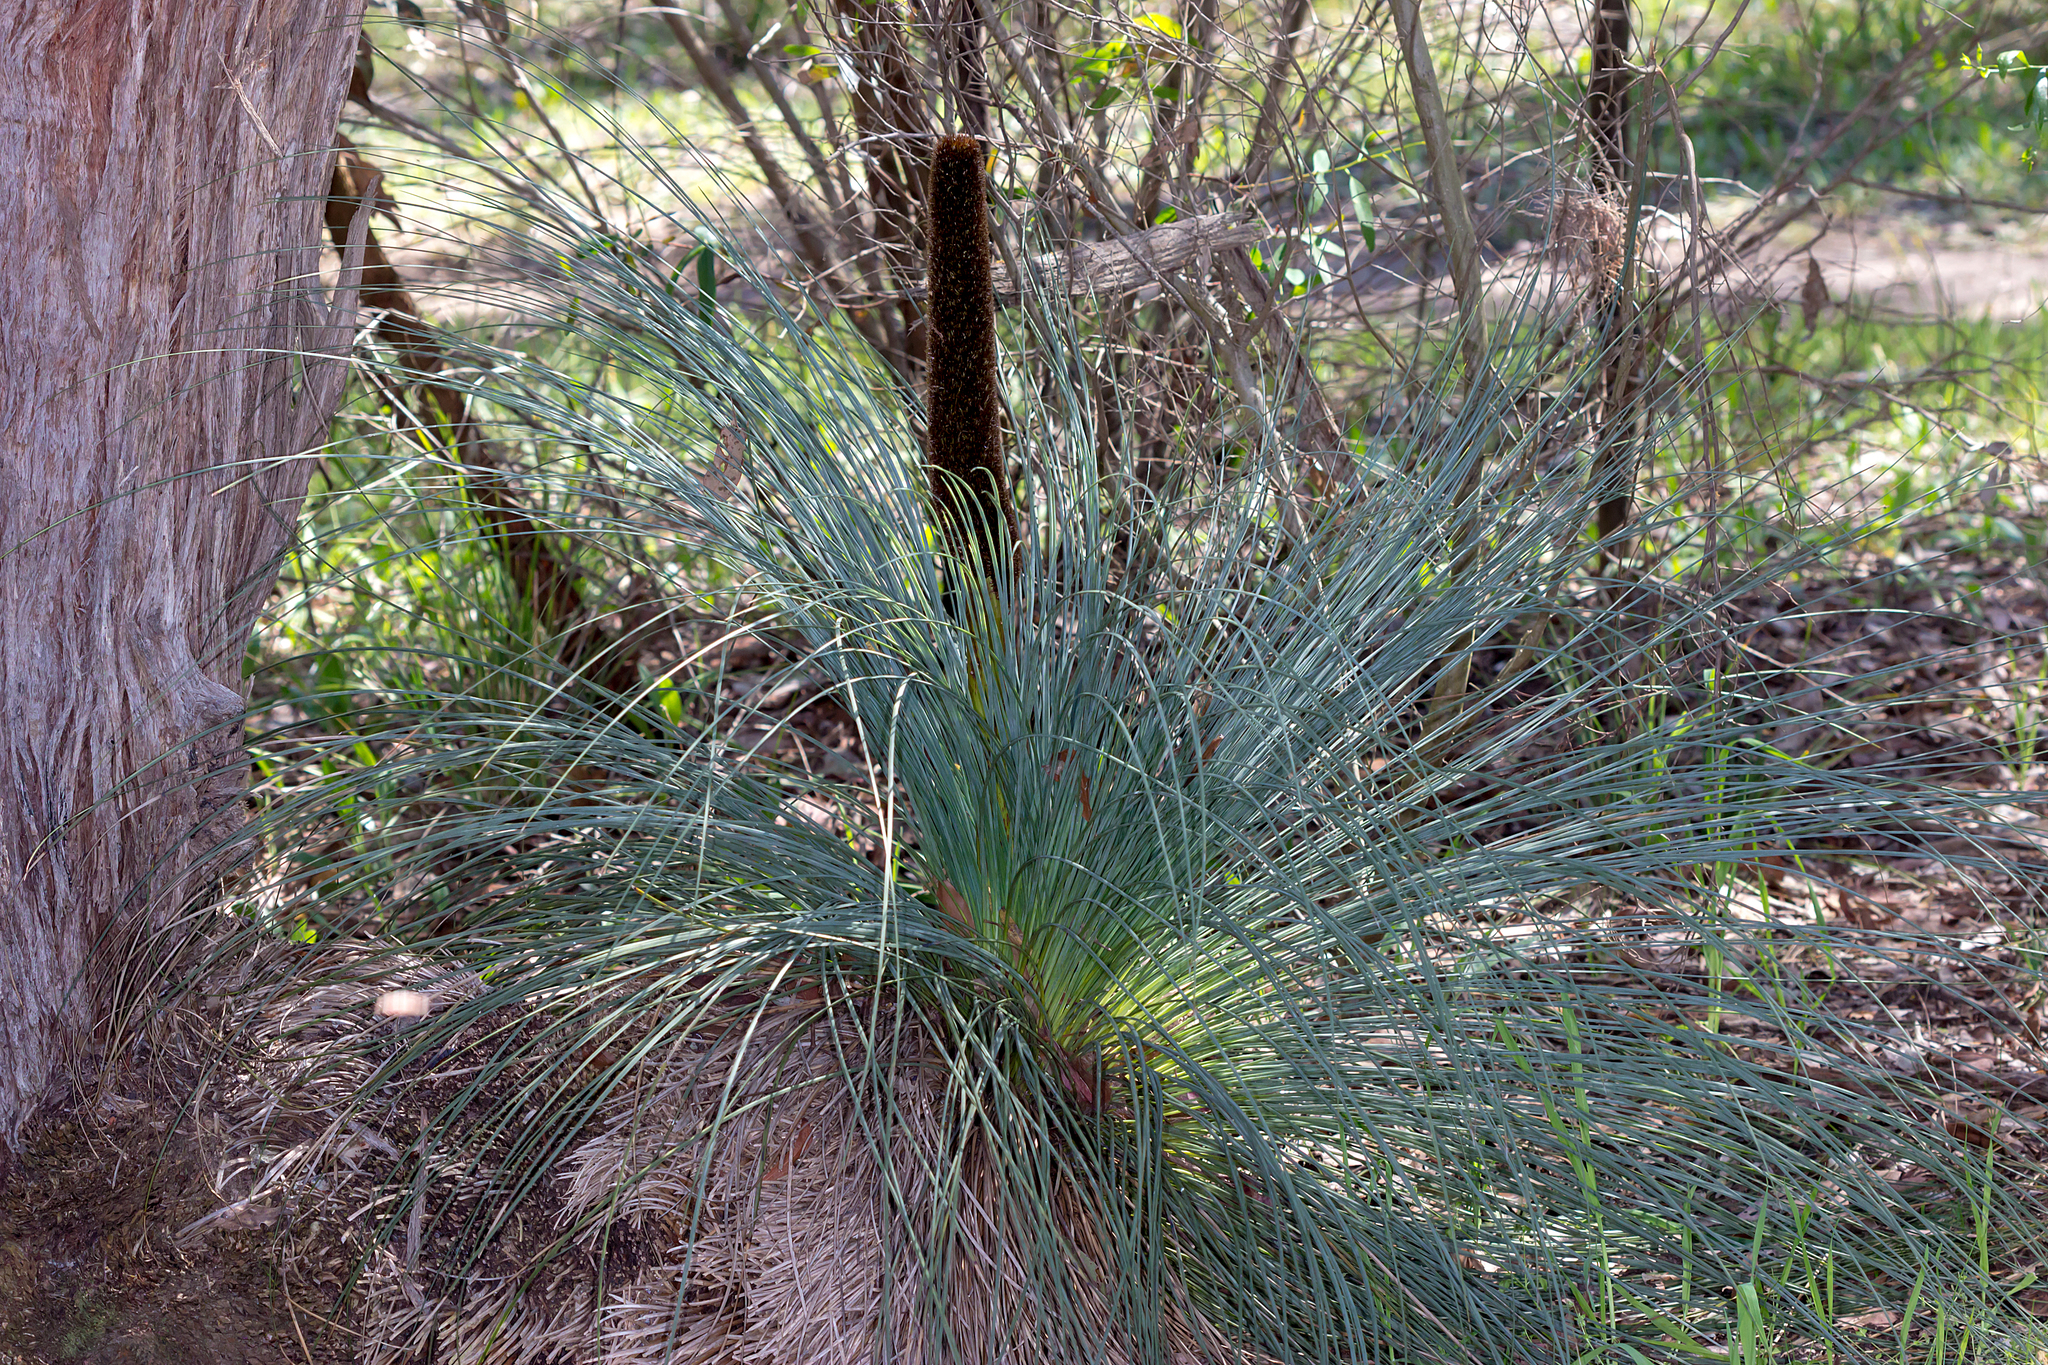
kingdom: Plantae
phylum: Tracheophyta
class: Liliopsida
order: Asparagales
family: Asphodelaceae
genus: Xanthorrhoea
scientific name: Xanthorrhoea australis
